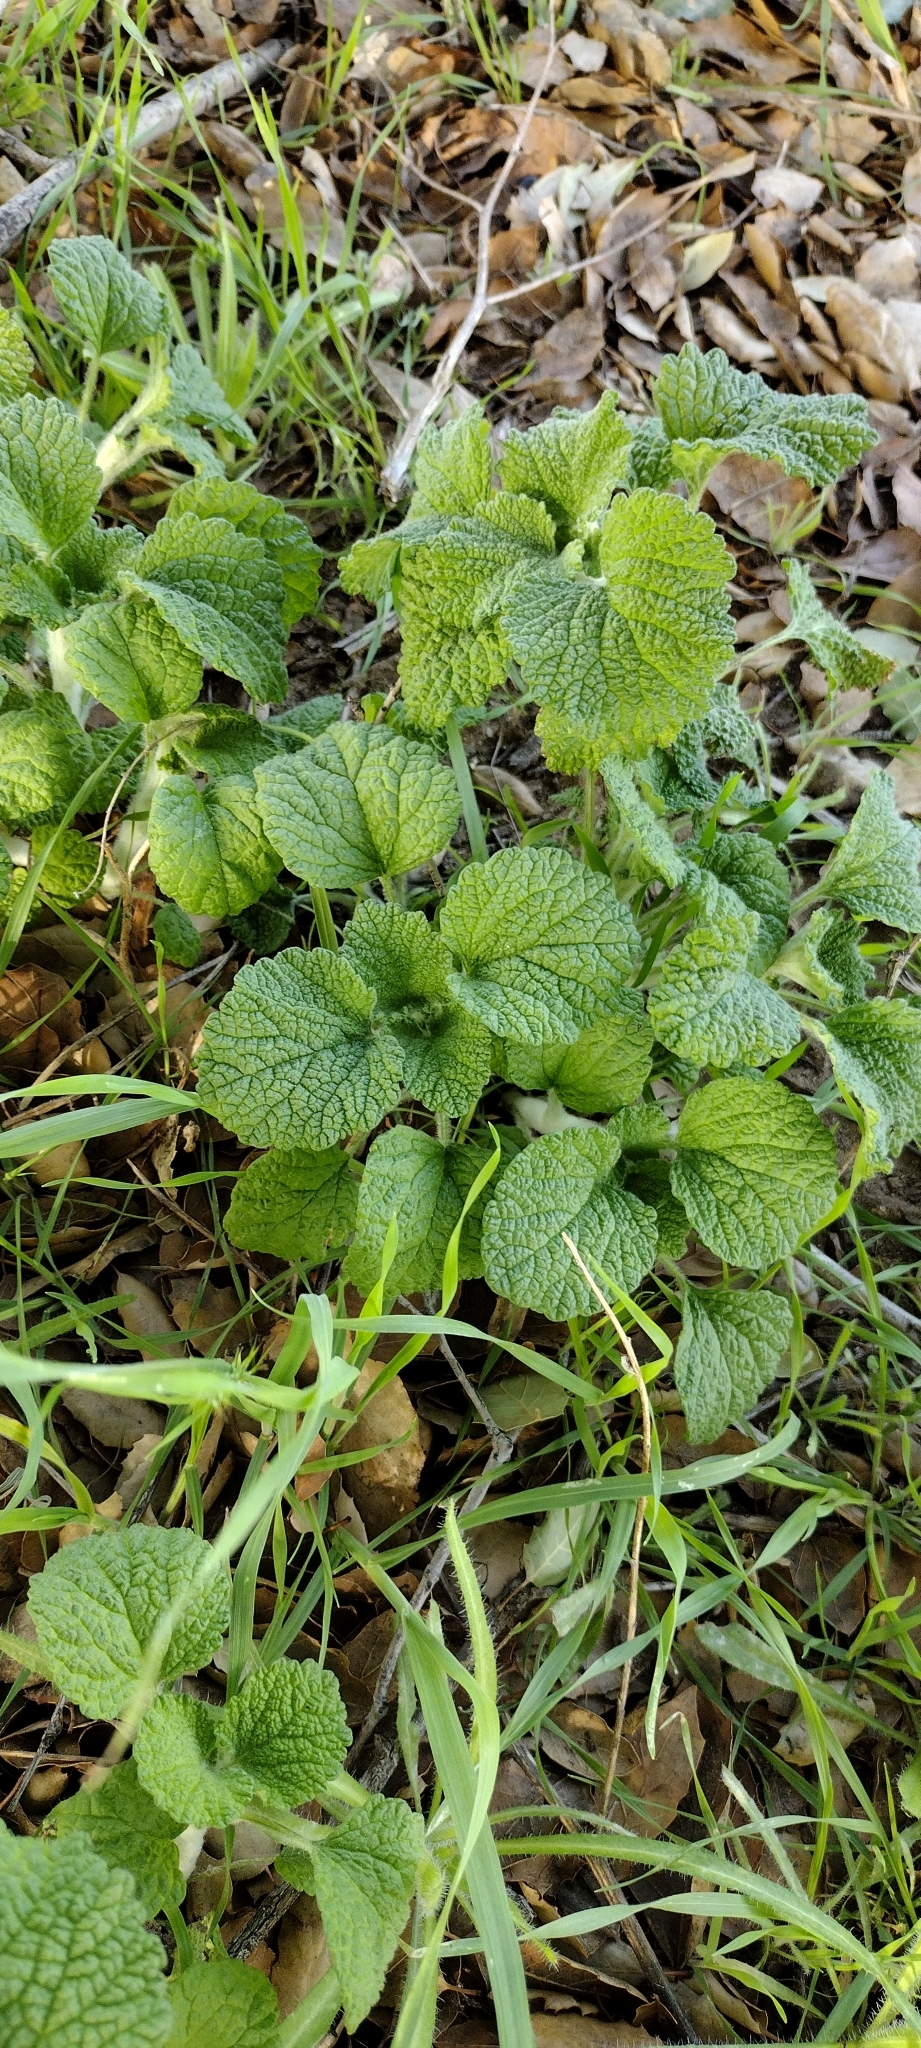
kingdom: Plantae
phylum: Tracheophyta
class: Magnoliopsida
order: Lamiales
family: Lamiaceae
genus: Marrubium
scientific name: Marrubium vulgare
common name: Horehound
